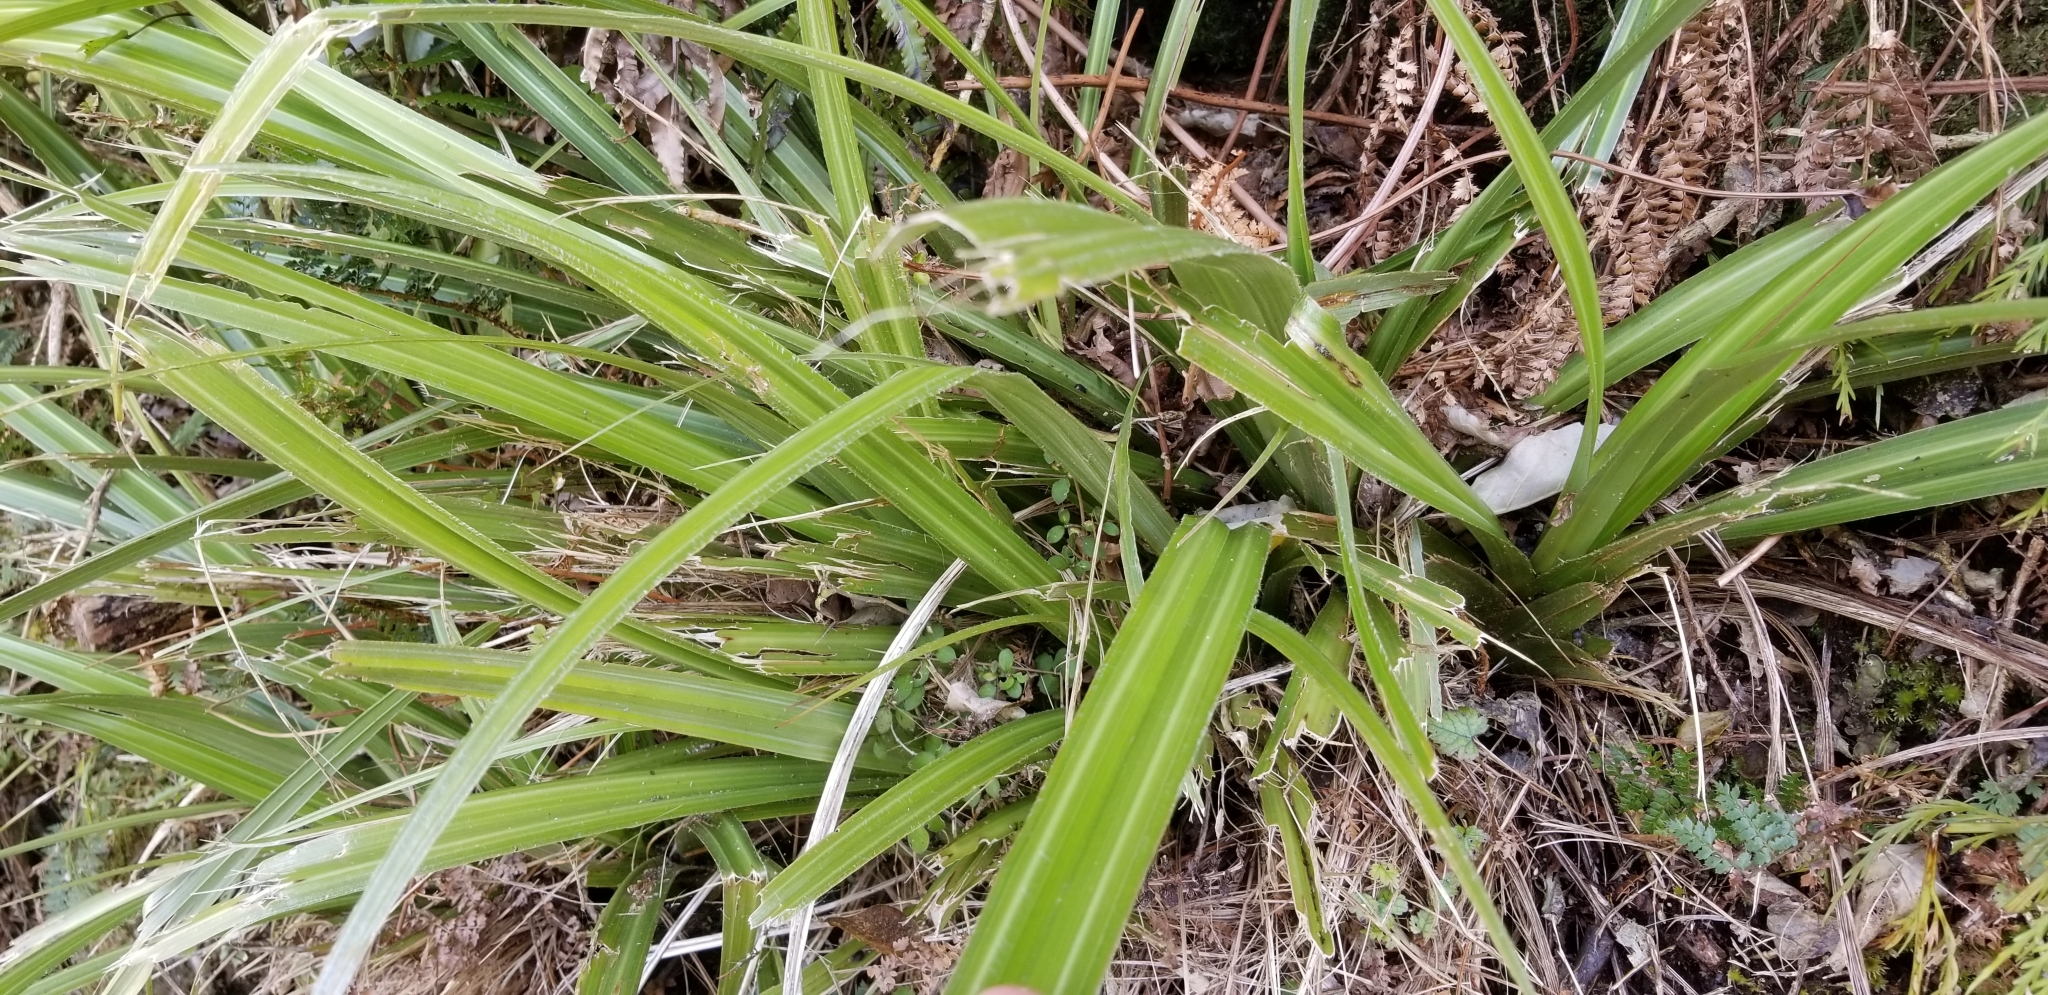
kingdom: Plantae
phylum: Tracheophyta
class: Liliopsida
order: Asparagales
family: Asteliaceae
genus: Astelia
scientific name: Astelia fragrans
